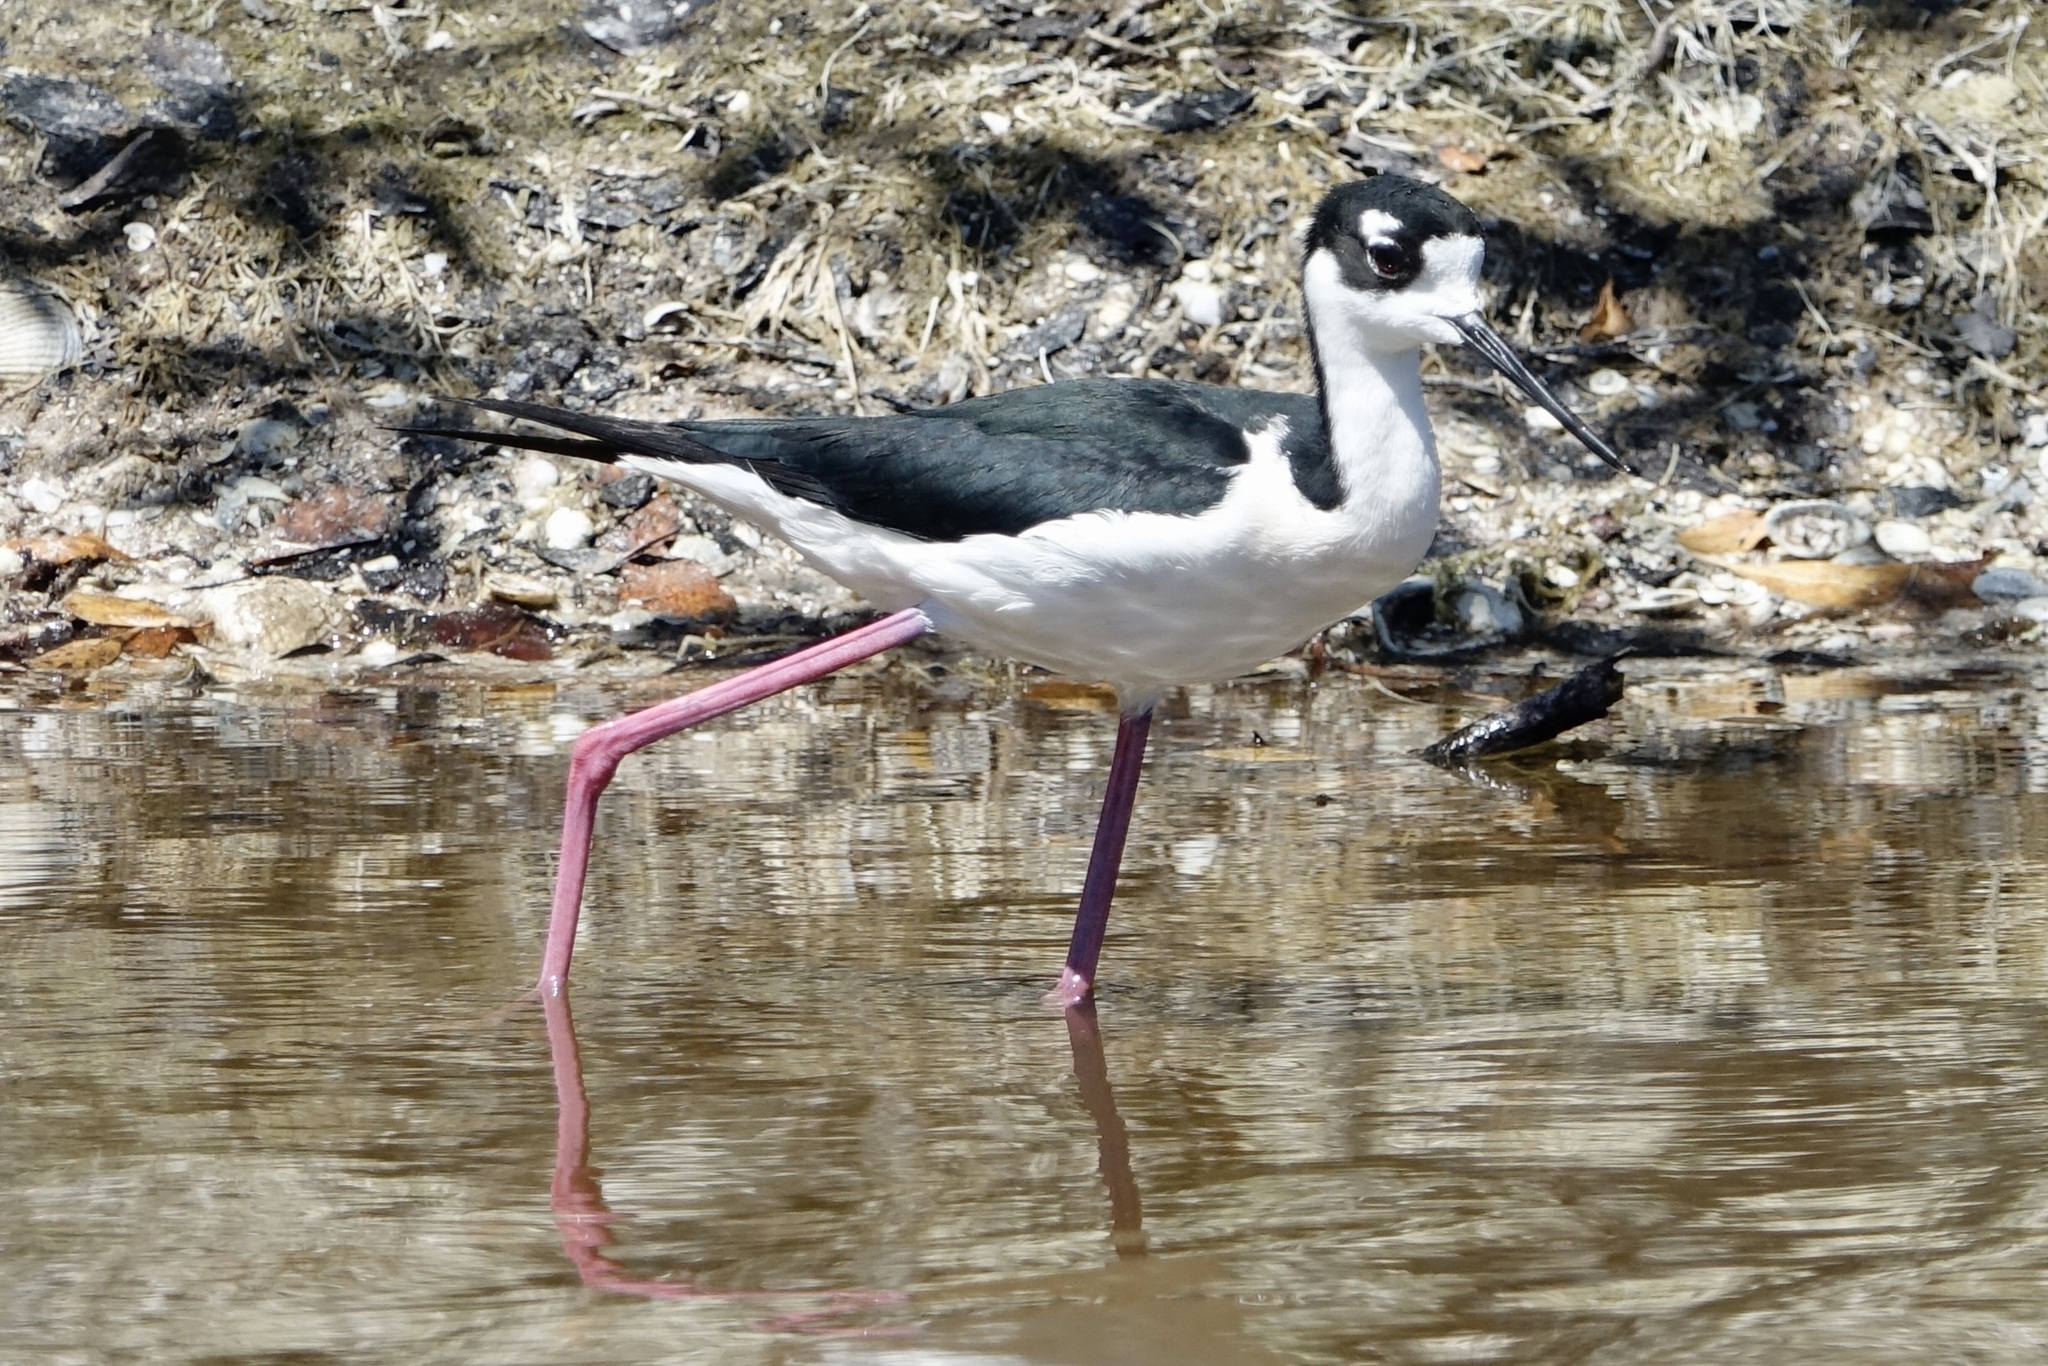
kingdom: Animalia
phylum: Chordata
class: Aves
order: Charadriiformes
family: Recurvirostridae
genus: Himantopus
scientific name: Himantopus mexicanus
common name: Black-necked stilt
